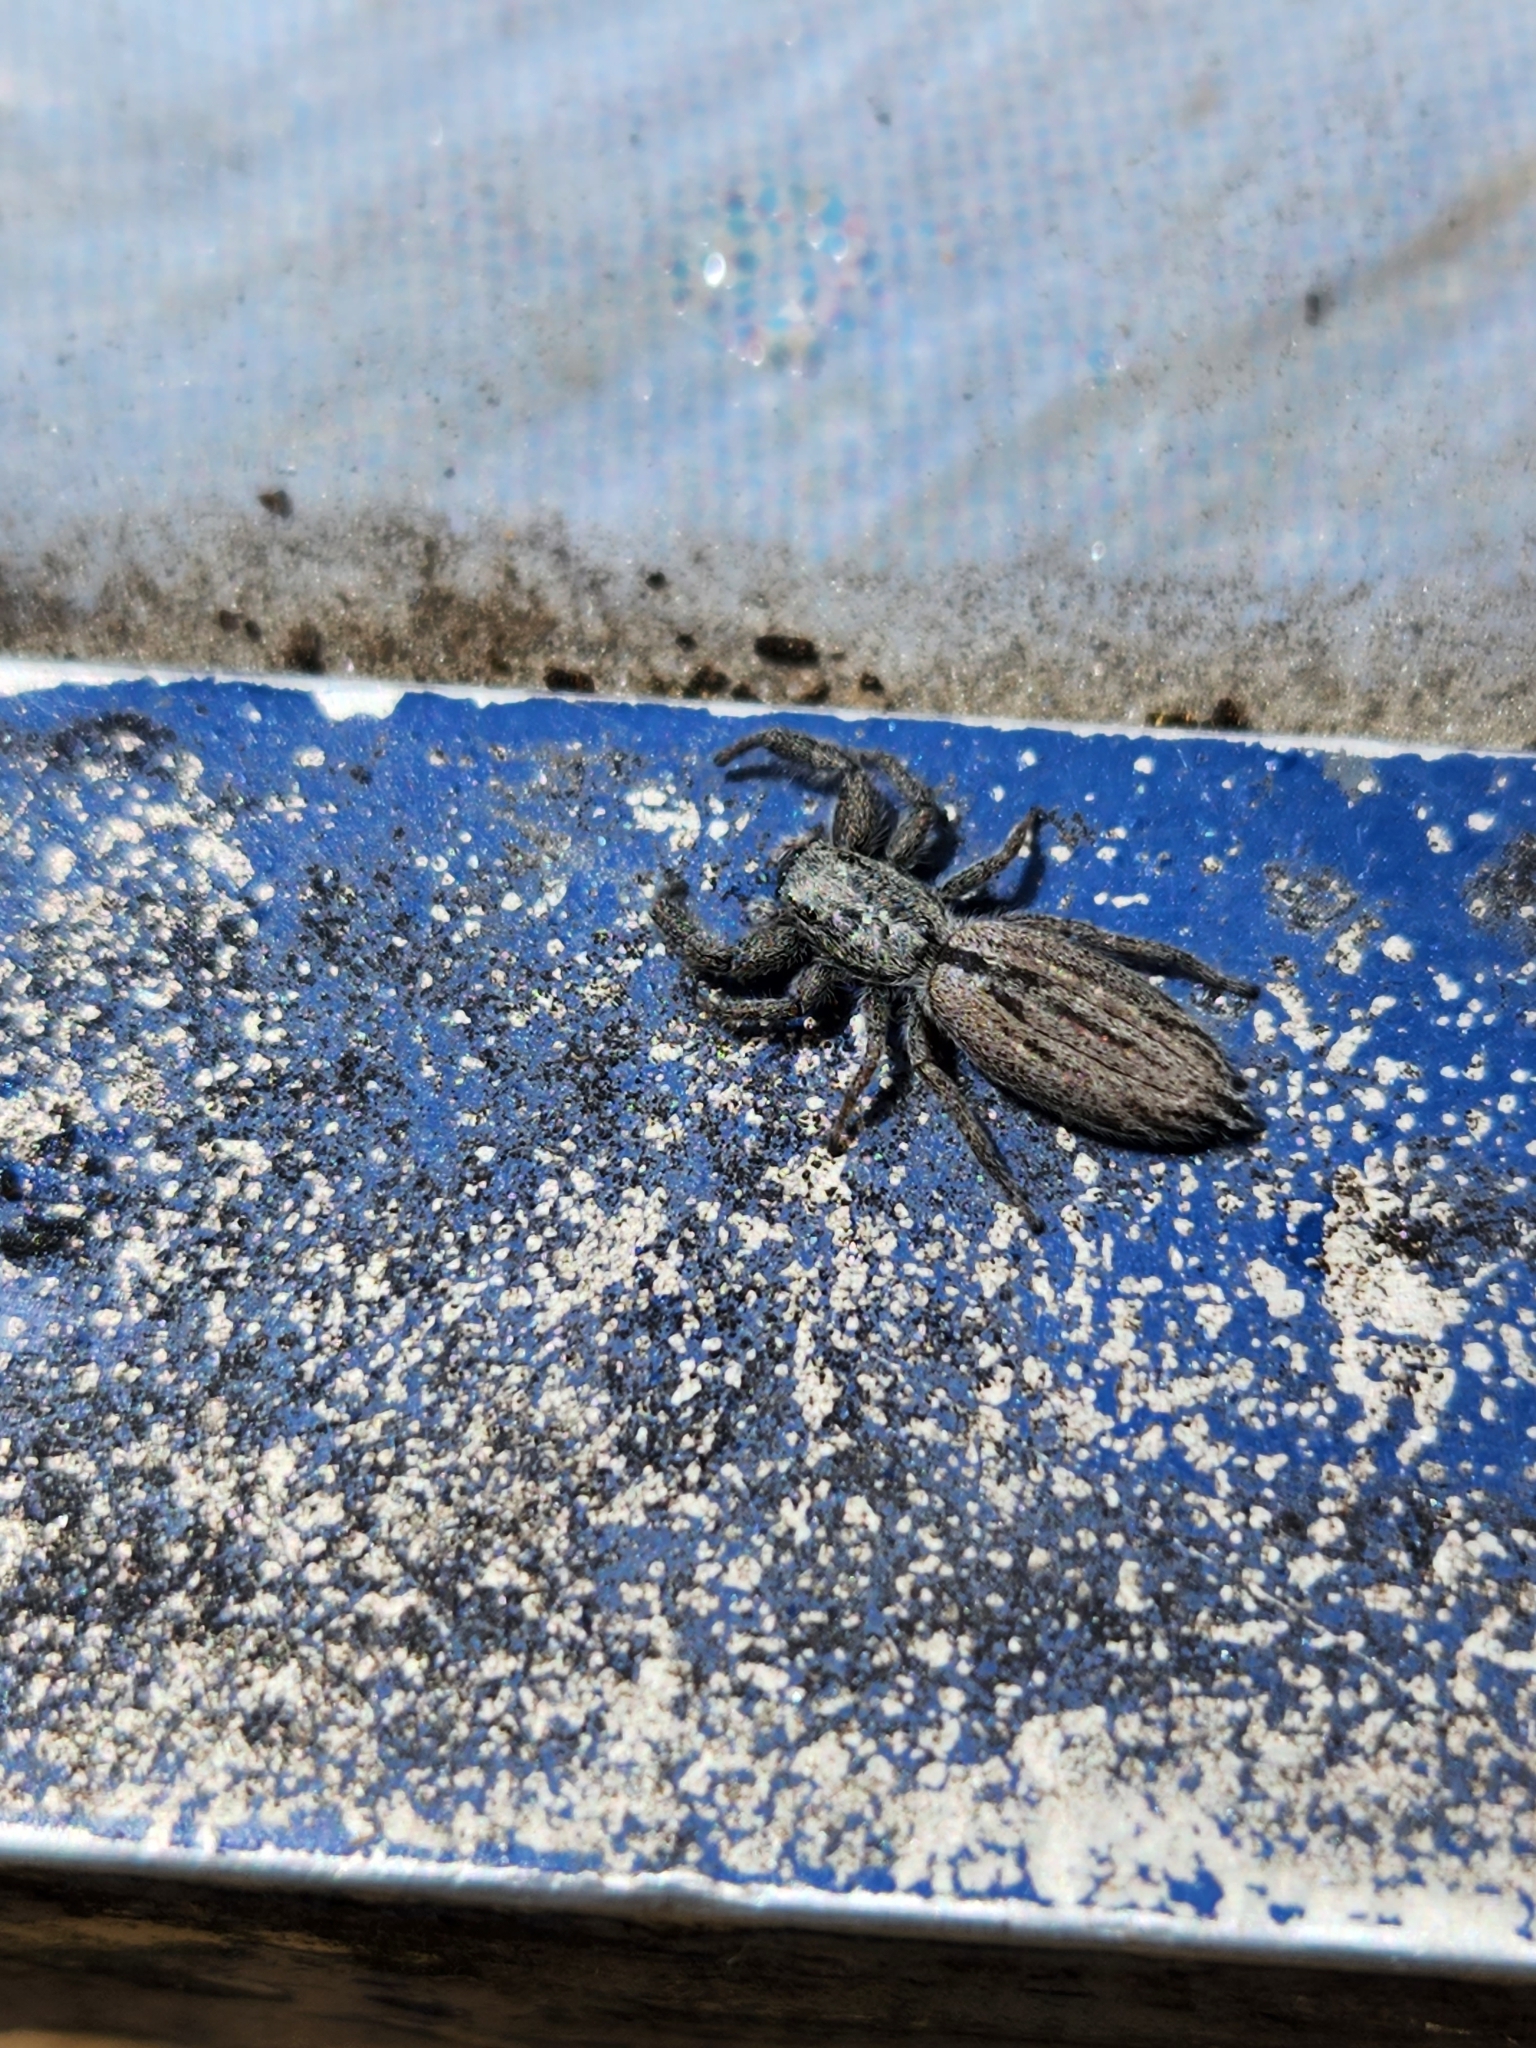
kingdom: Animalia
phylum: Arthropoda
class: Arachnida
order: Araneae
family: Salticidae
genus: Holoplatys
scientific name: Holoplatys apressus
